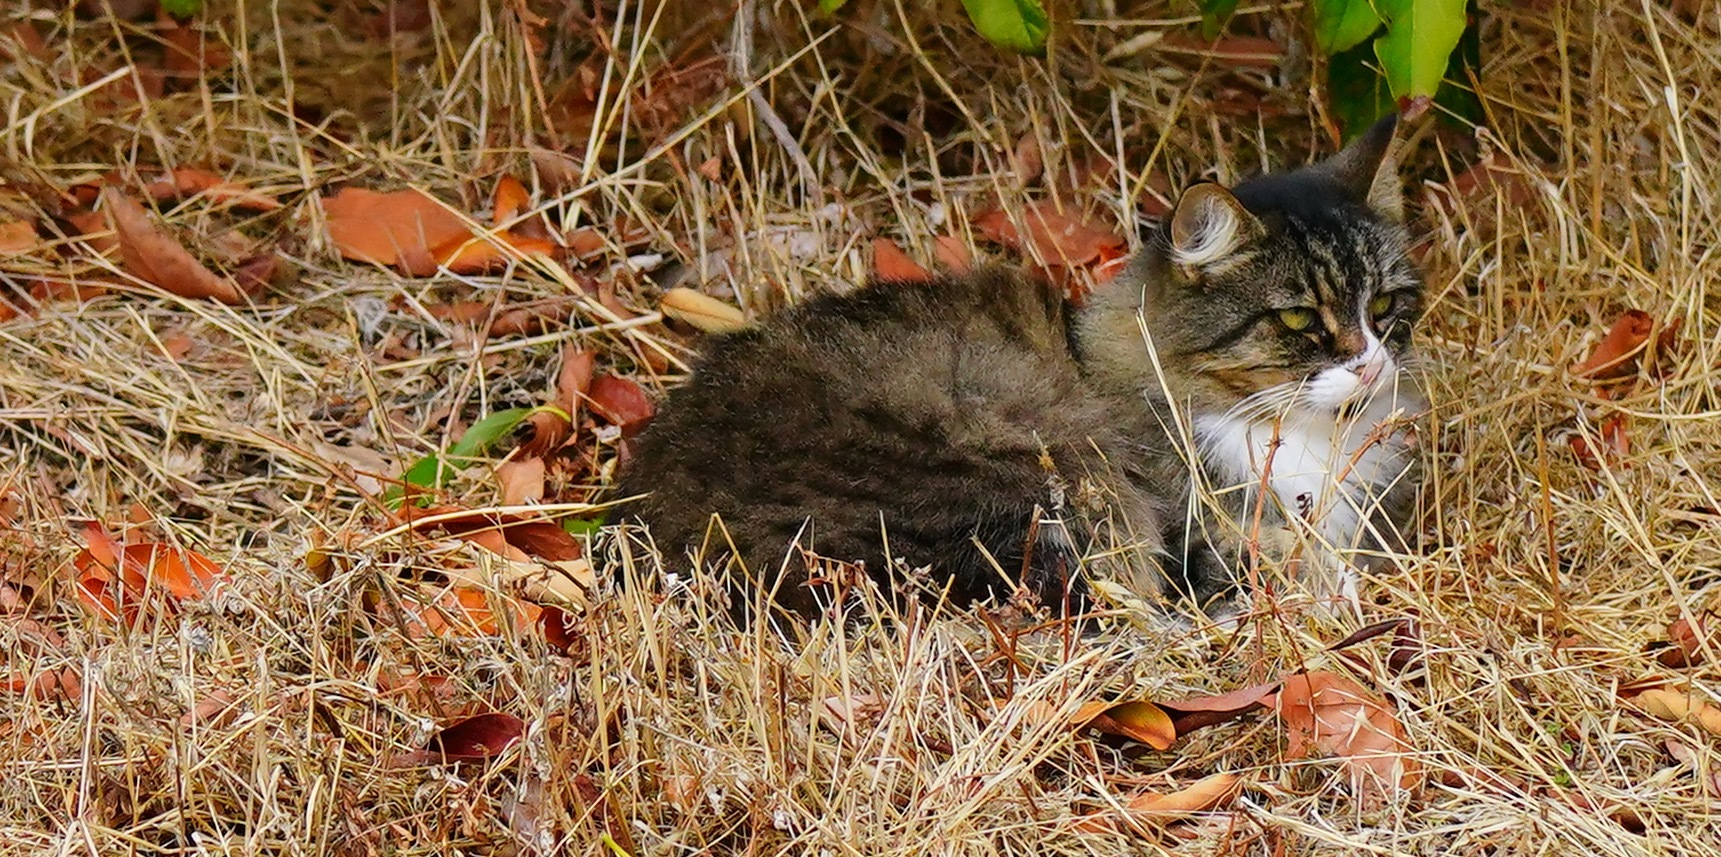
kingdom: Animalia
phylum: Chordata
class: Mammalia
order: Carnivora
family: Felidae
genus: Felis
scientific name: Felis catus
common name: Domestic cat
